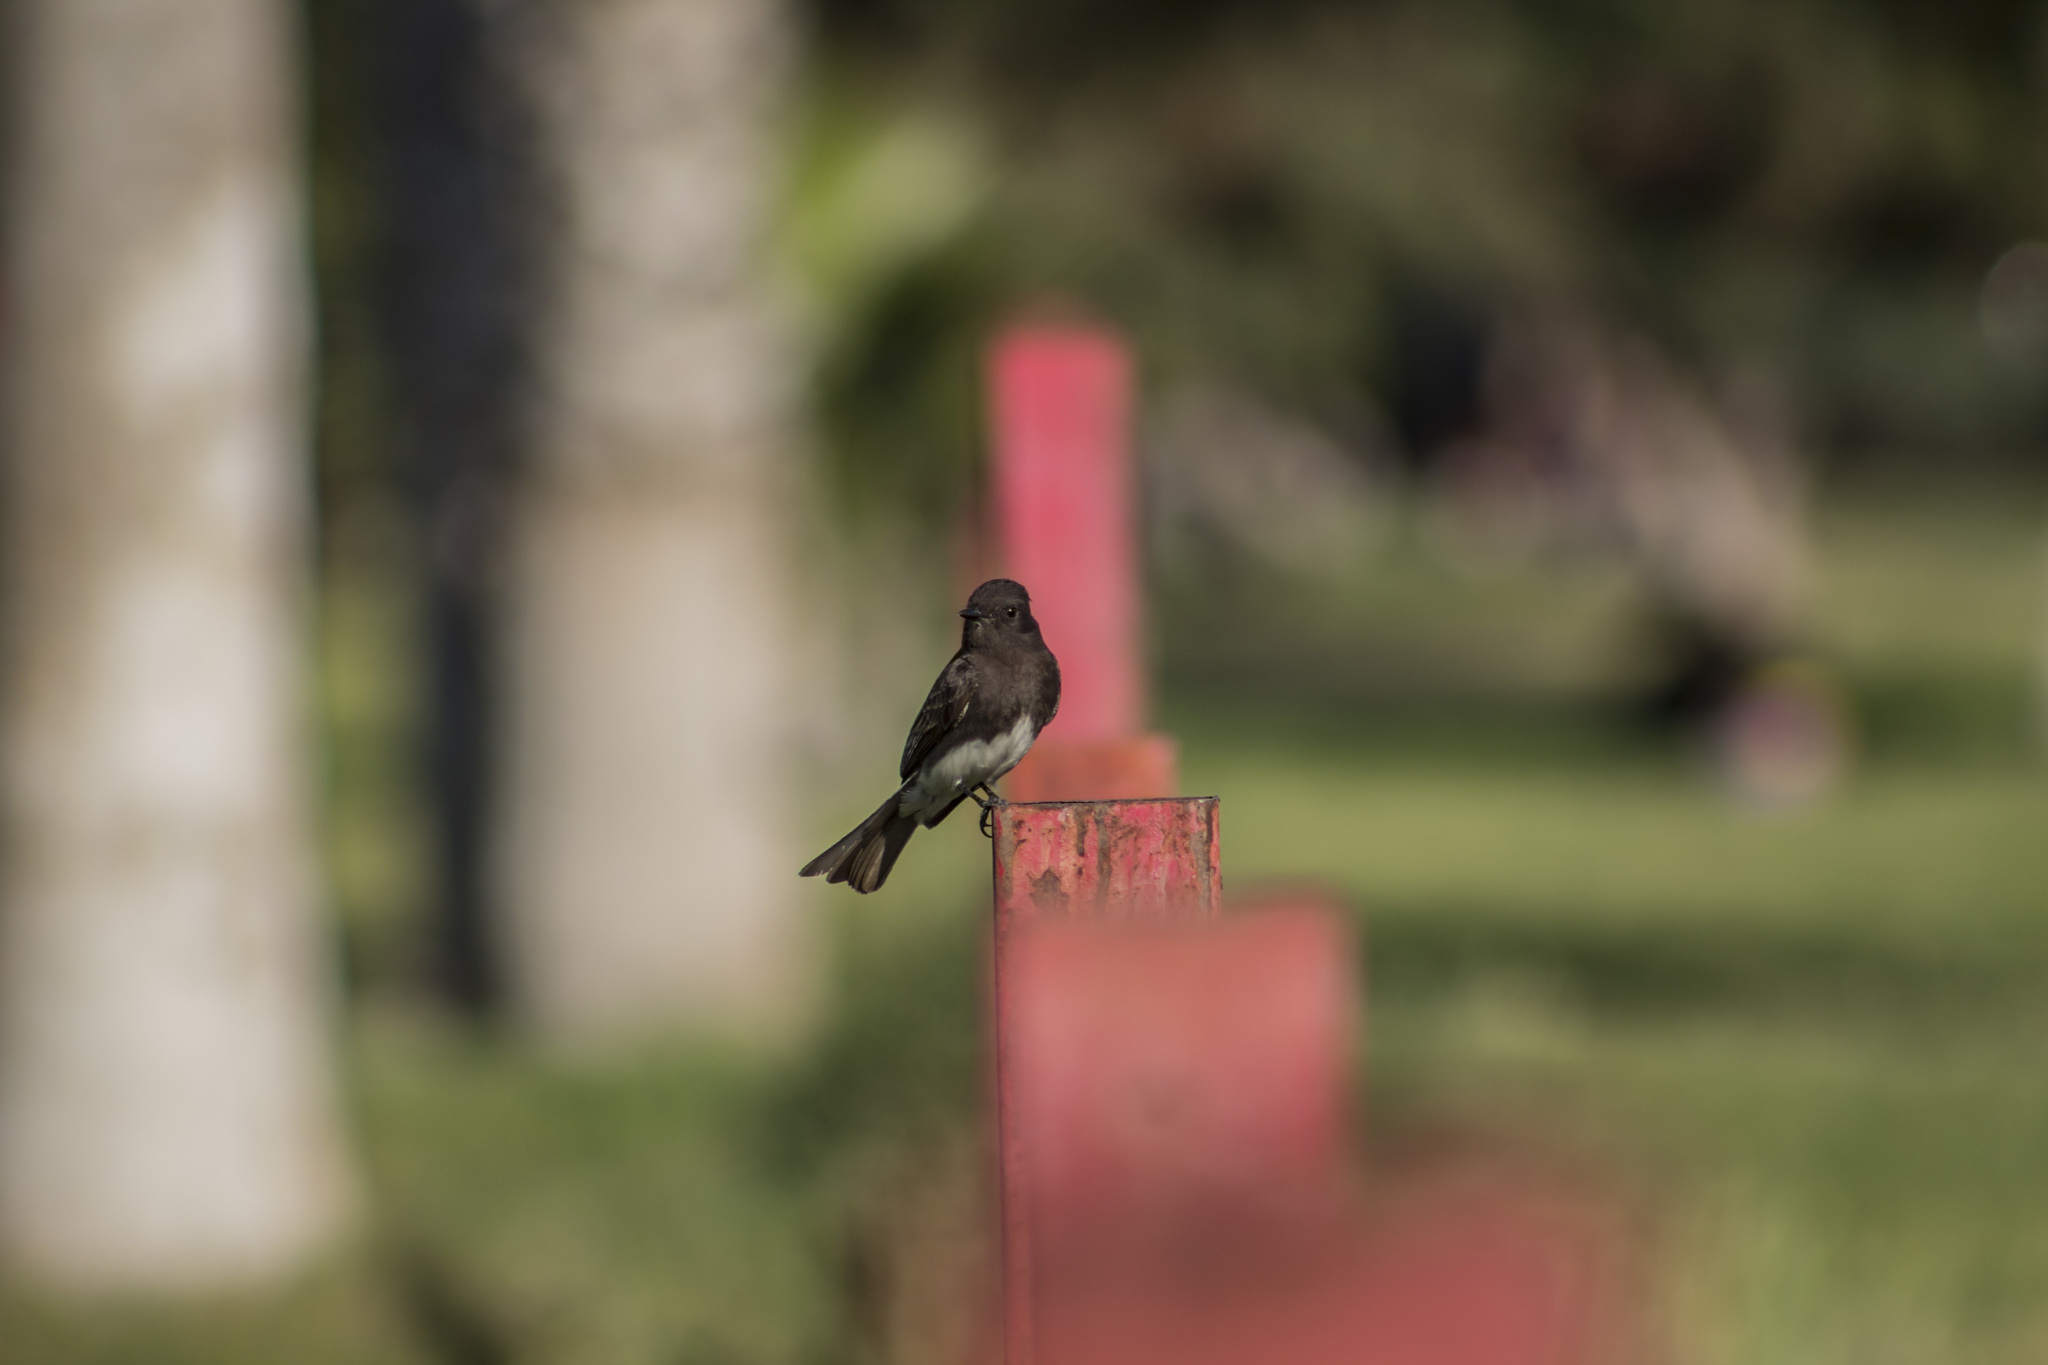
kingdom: Animalia
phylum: Chordata
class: Aves
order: Passeriformes
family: Tyrannidae
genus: Sayornis
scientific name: Sayornis nigricans
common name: Black phoebe
